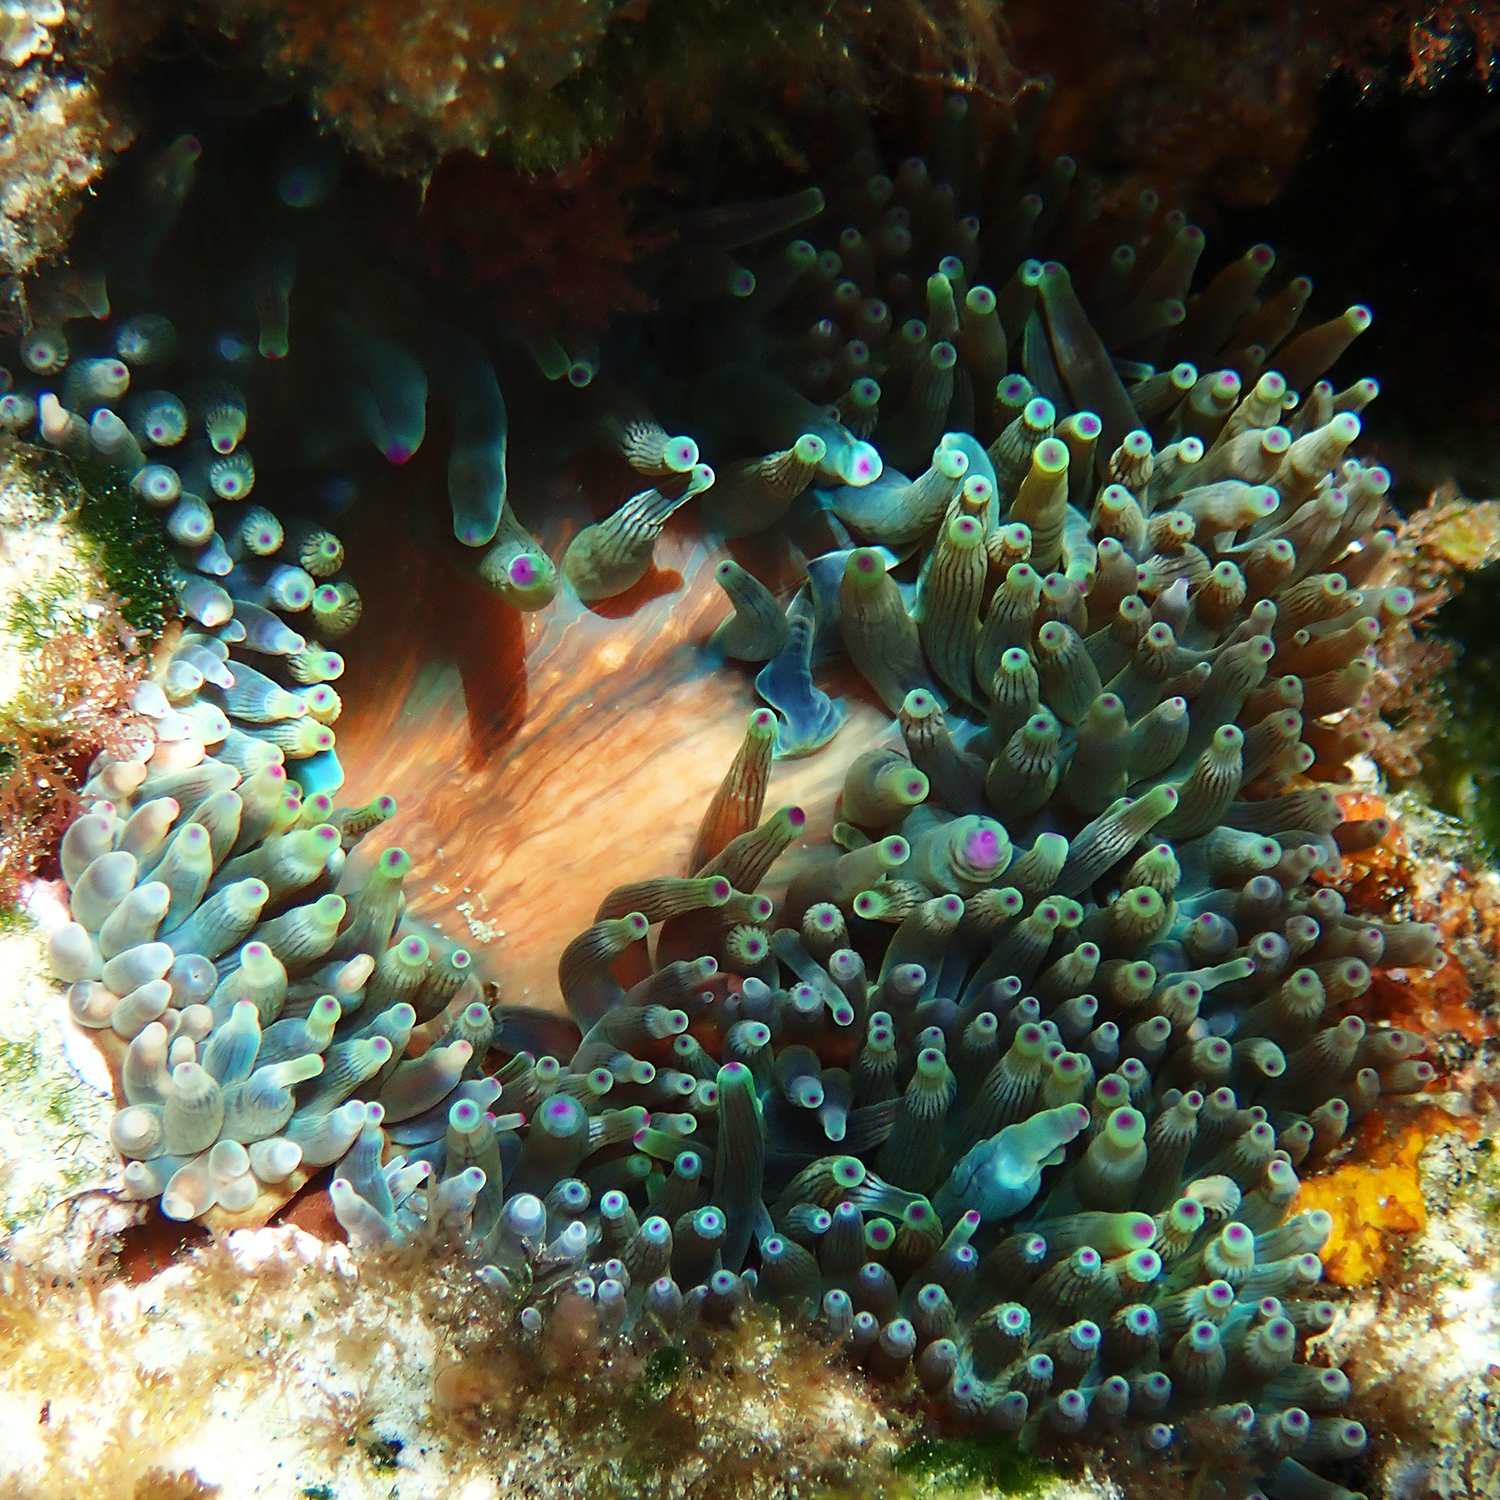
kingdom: Animalia
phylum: Cnidaria
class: Anthozoa
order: Actiniaria
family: Actiniidae
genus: Entacmaea
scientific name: Entacmaea quadricolor
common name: Bulb tentacle sea anemone
